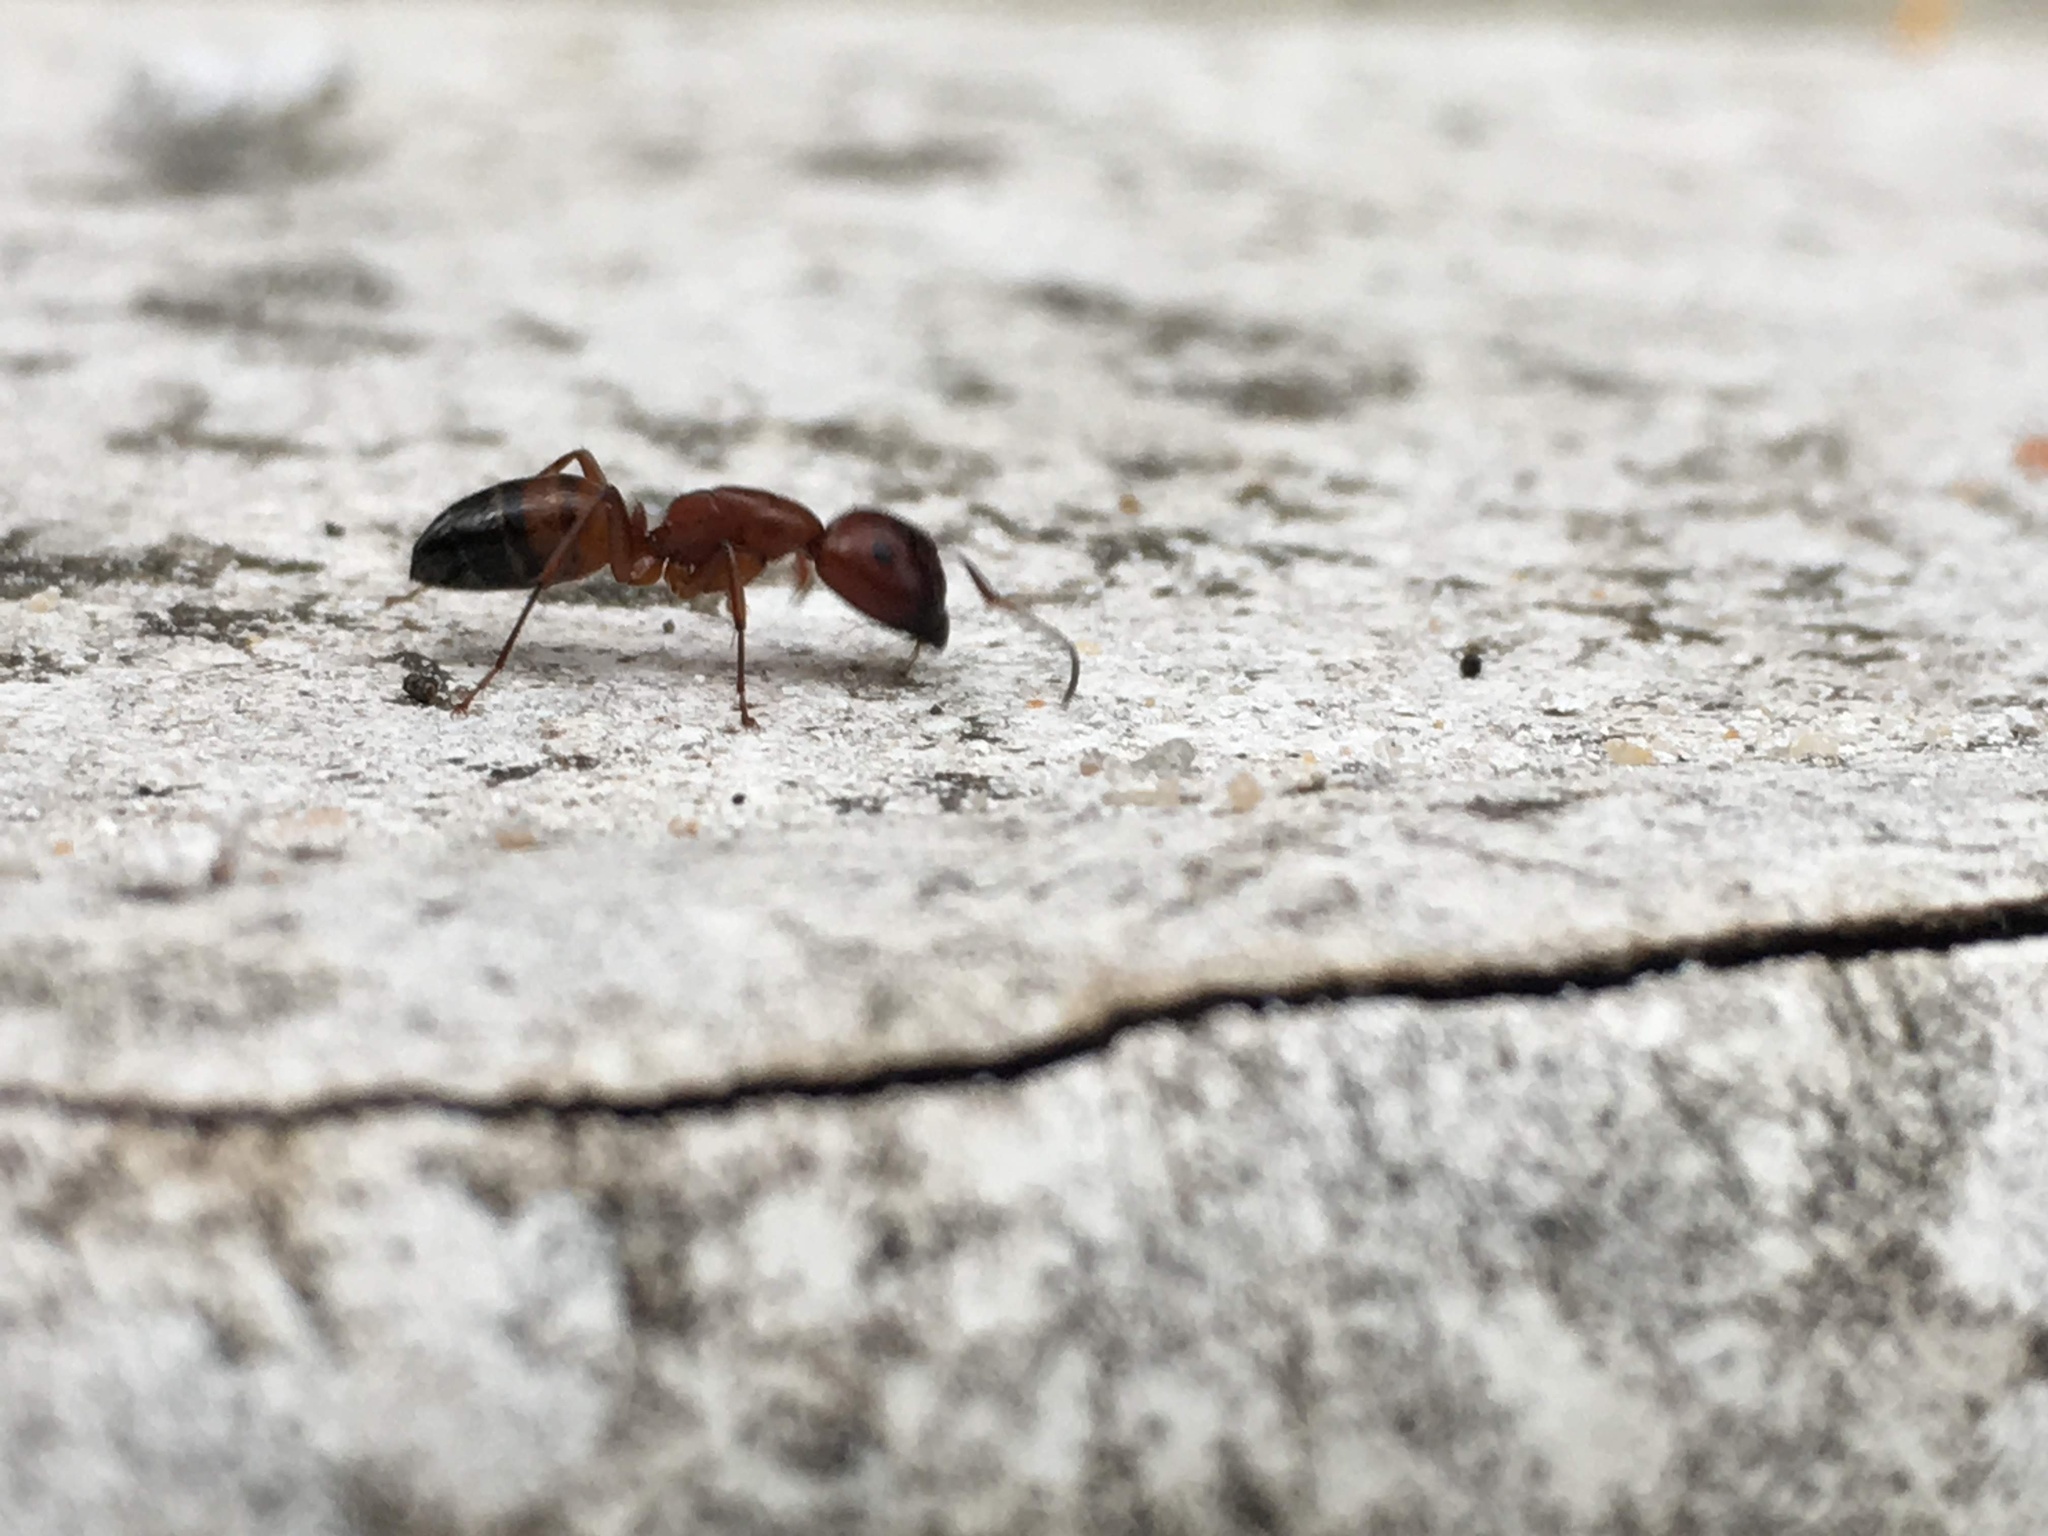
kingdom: Animalia
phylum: Arthropoda
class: Insecta
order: Hymenoptera
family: Formicidae
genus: Camponotus
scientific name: Camponotus snellingi
